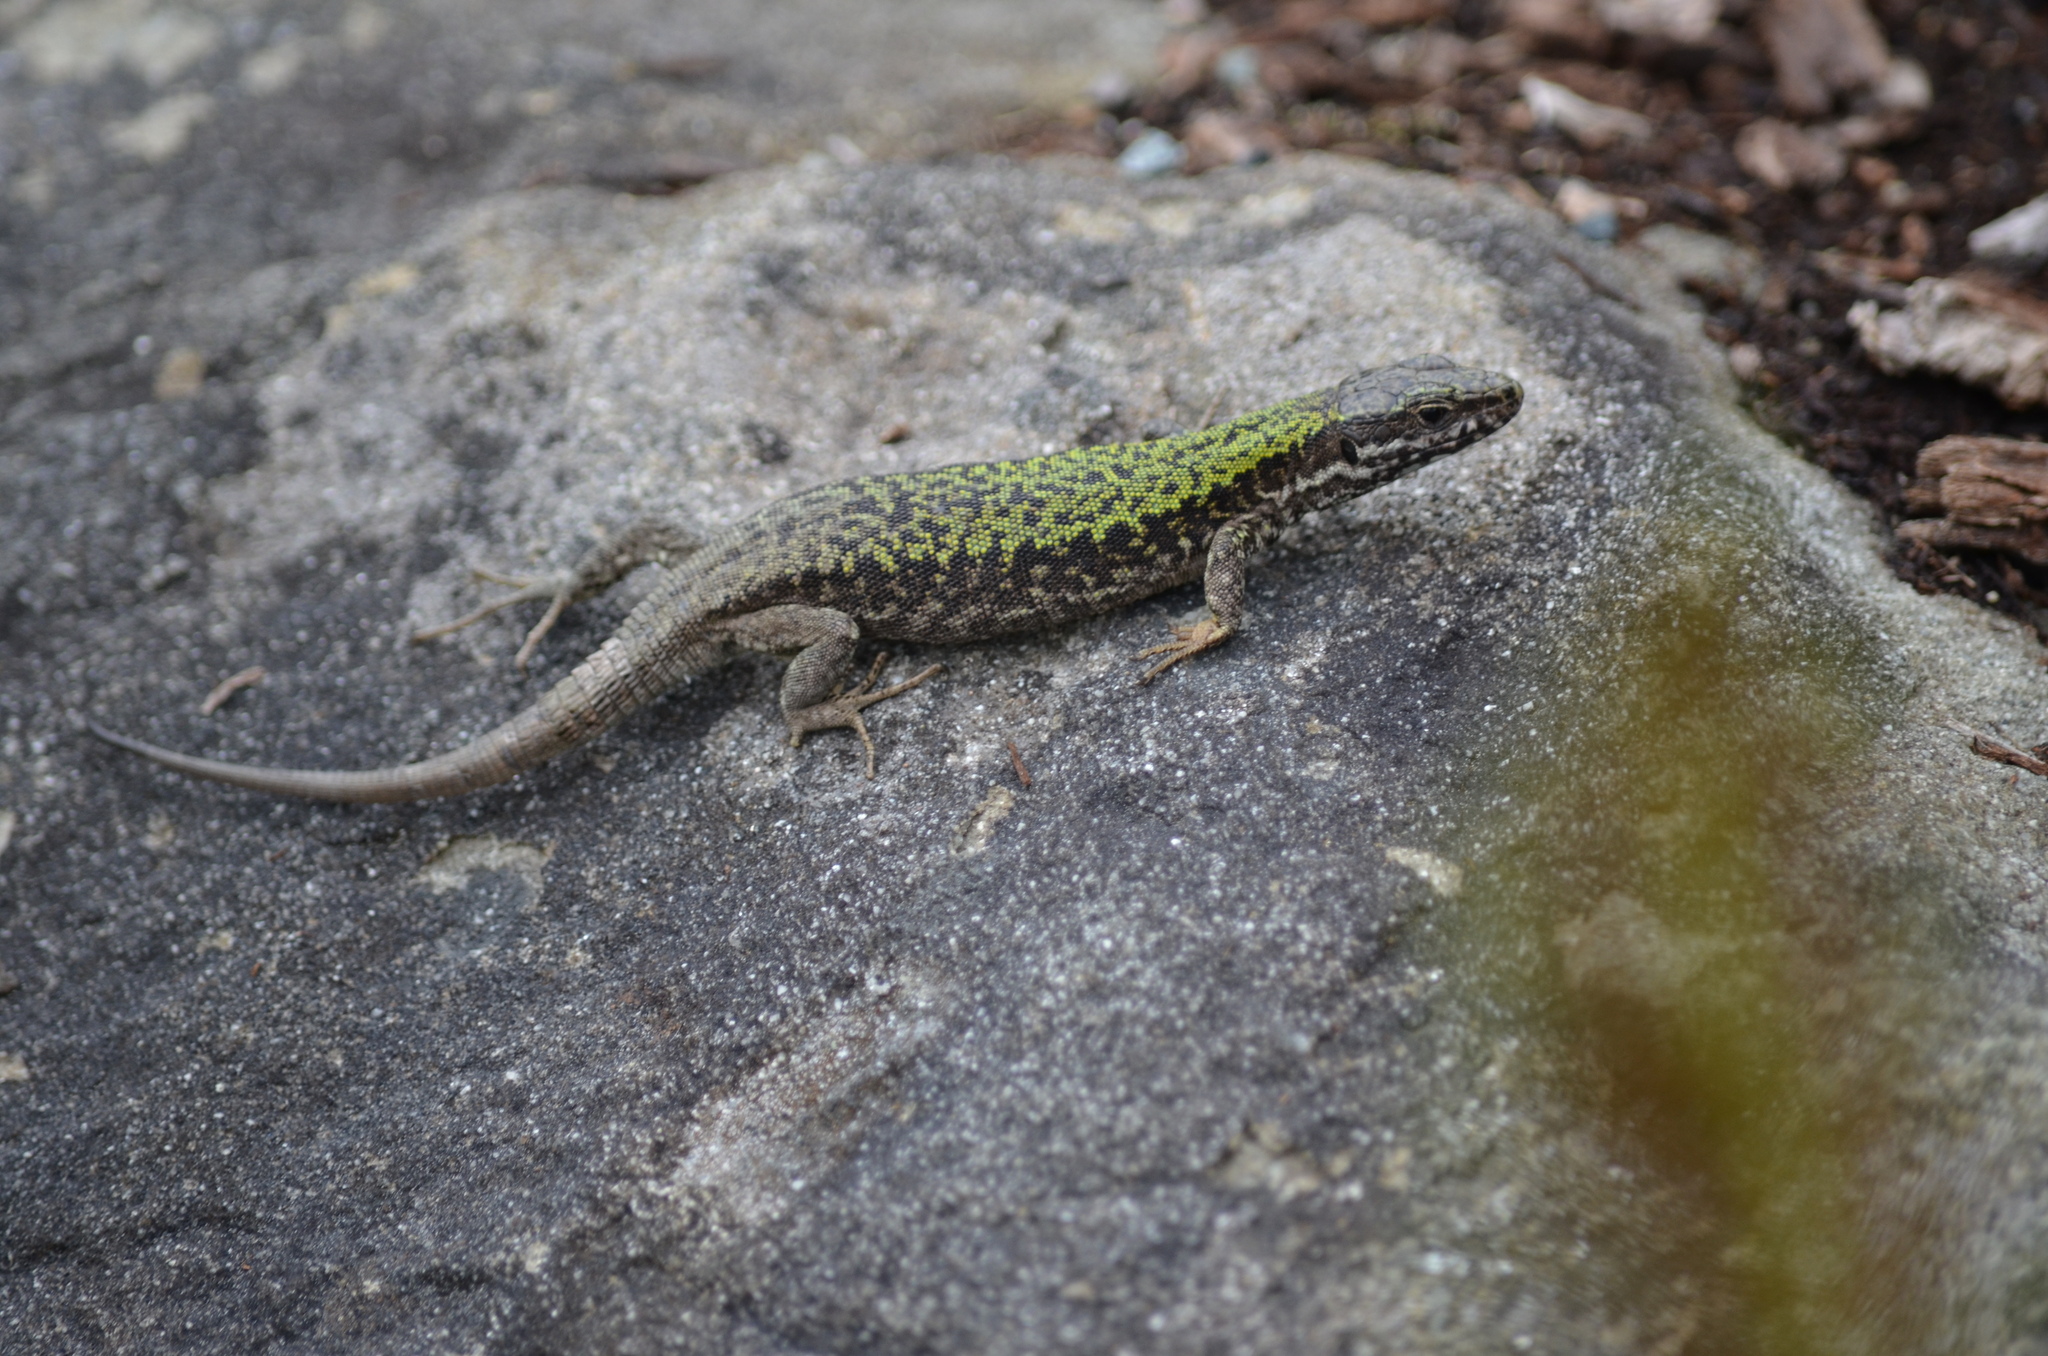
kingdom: Animalia
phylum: Chordata
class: Squamata
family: Lacertidae
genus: Podarcis
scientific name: Podarcis muralis
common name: Common wall lizard
